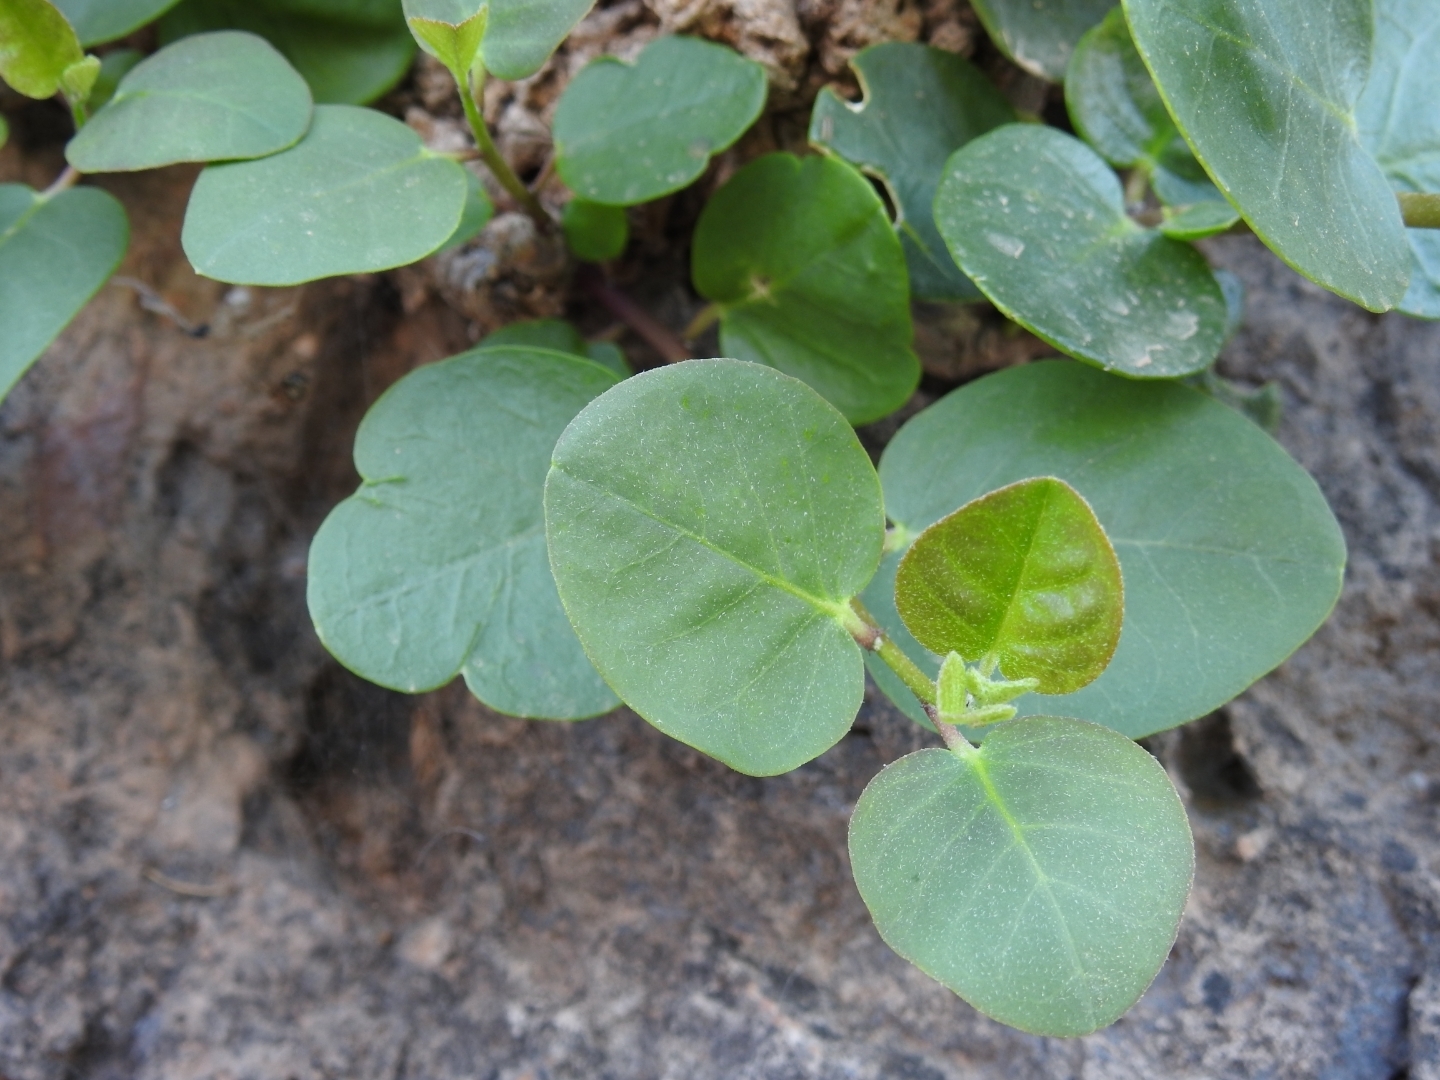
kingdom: Plantae
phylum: Tracheophyta
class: Magnoliopsida
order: Brassicales
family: Capparaceae
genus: Capparis
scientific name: Capparis orientalis
